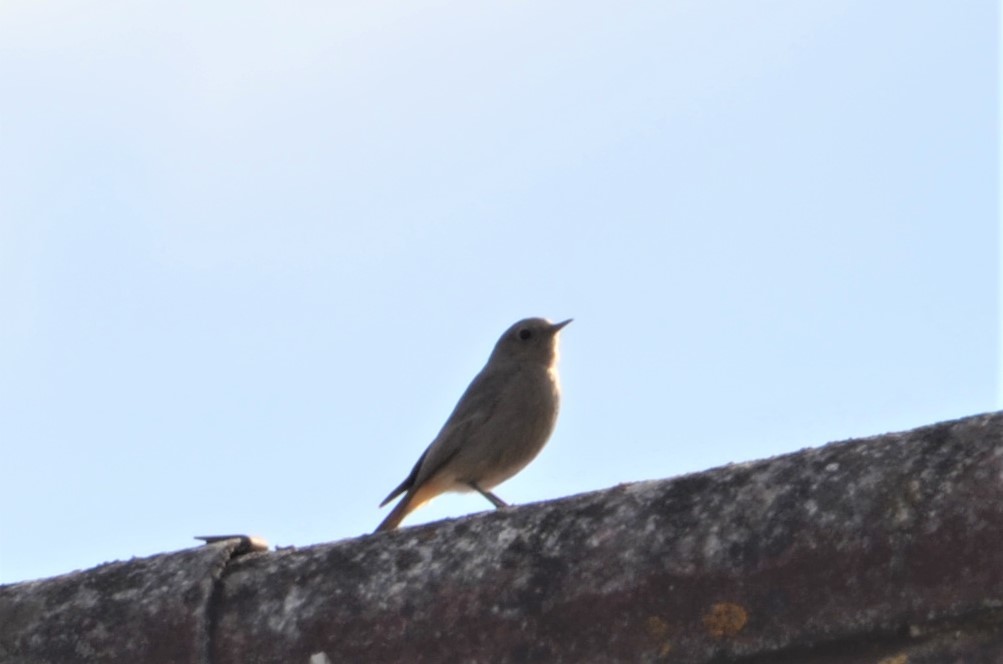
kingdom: Animalia
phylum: Chordata
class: Aves
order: Passeriformes
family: Muscicapidae
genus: Phoenicurus
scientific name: Phoenicurus ochruros
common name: Black redstart
